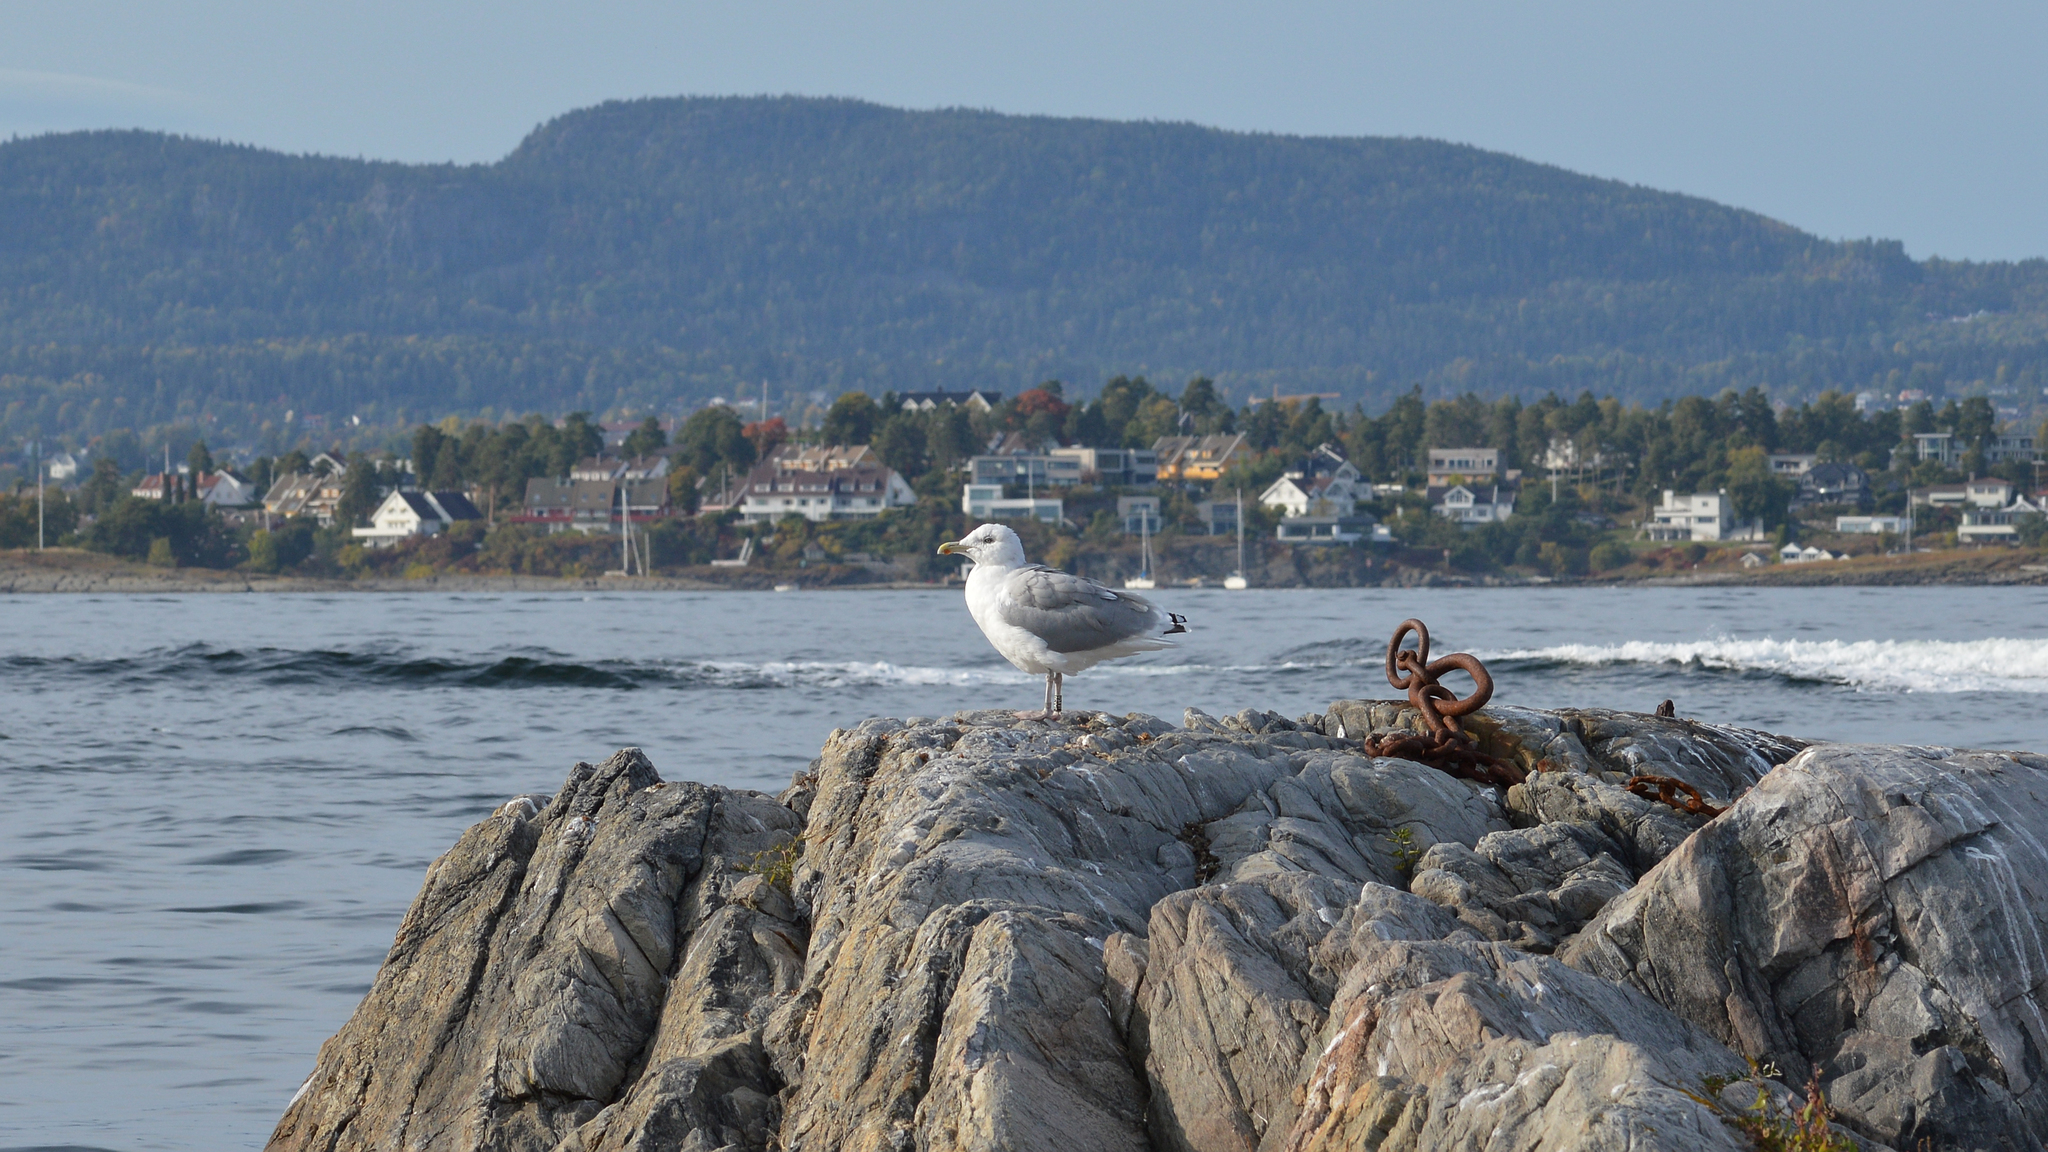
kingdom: Animalia
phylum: Chordata
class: Aves
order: Charadriiformes
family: Laridae
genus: Larus
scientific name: Larus argentatus
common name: Herring gull
